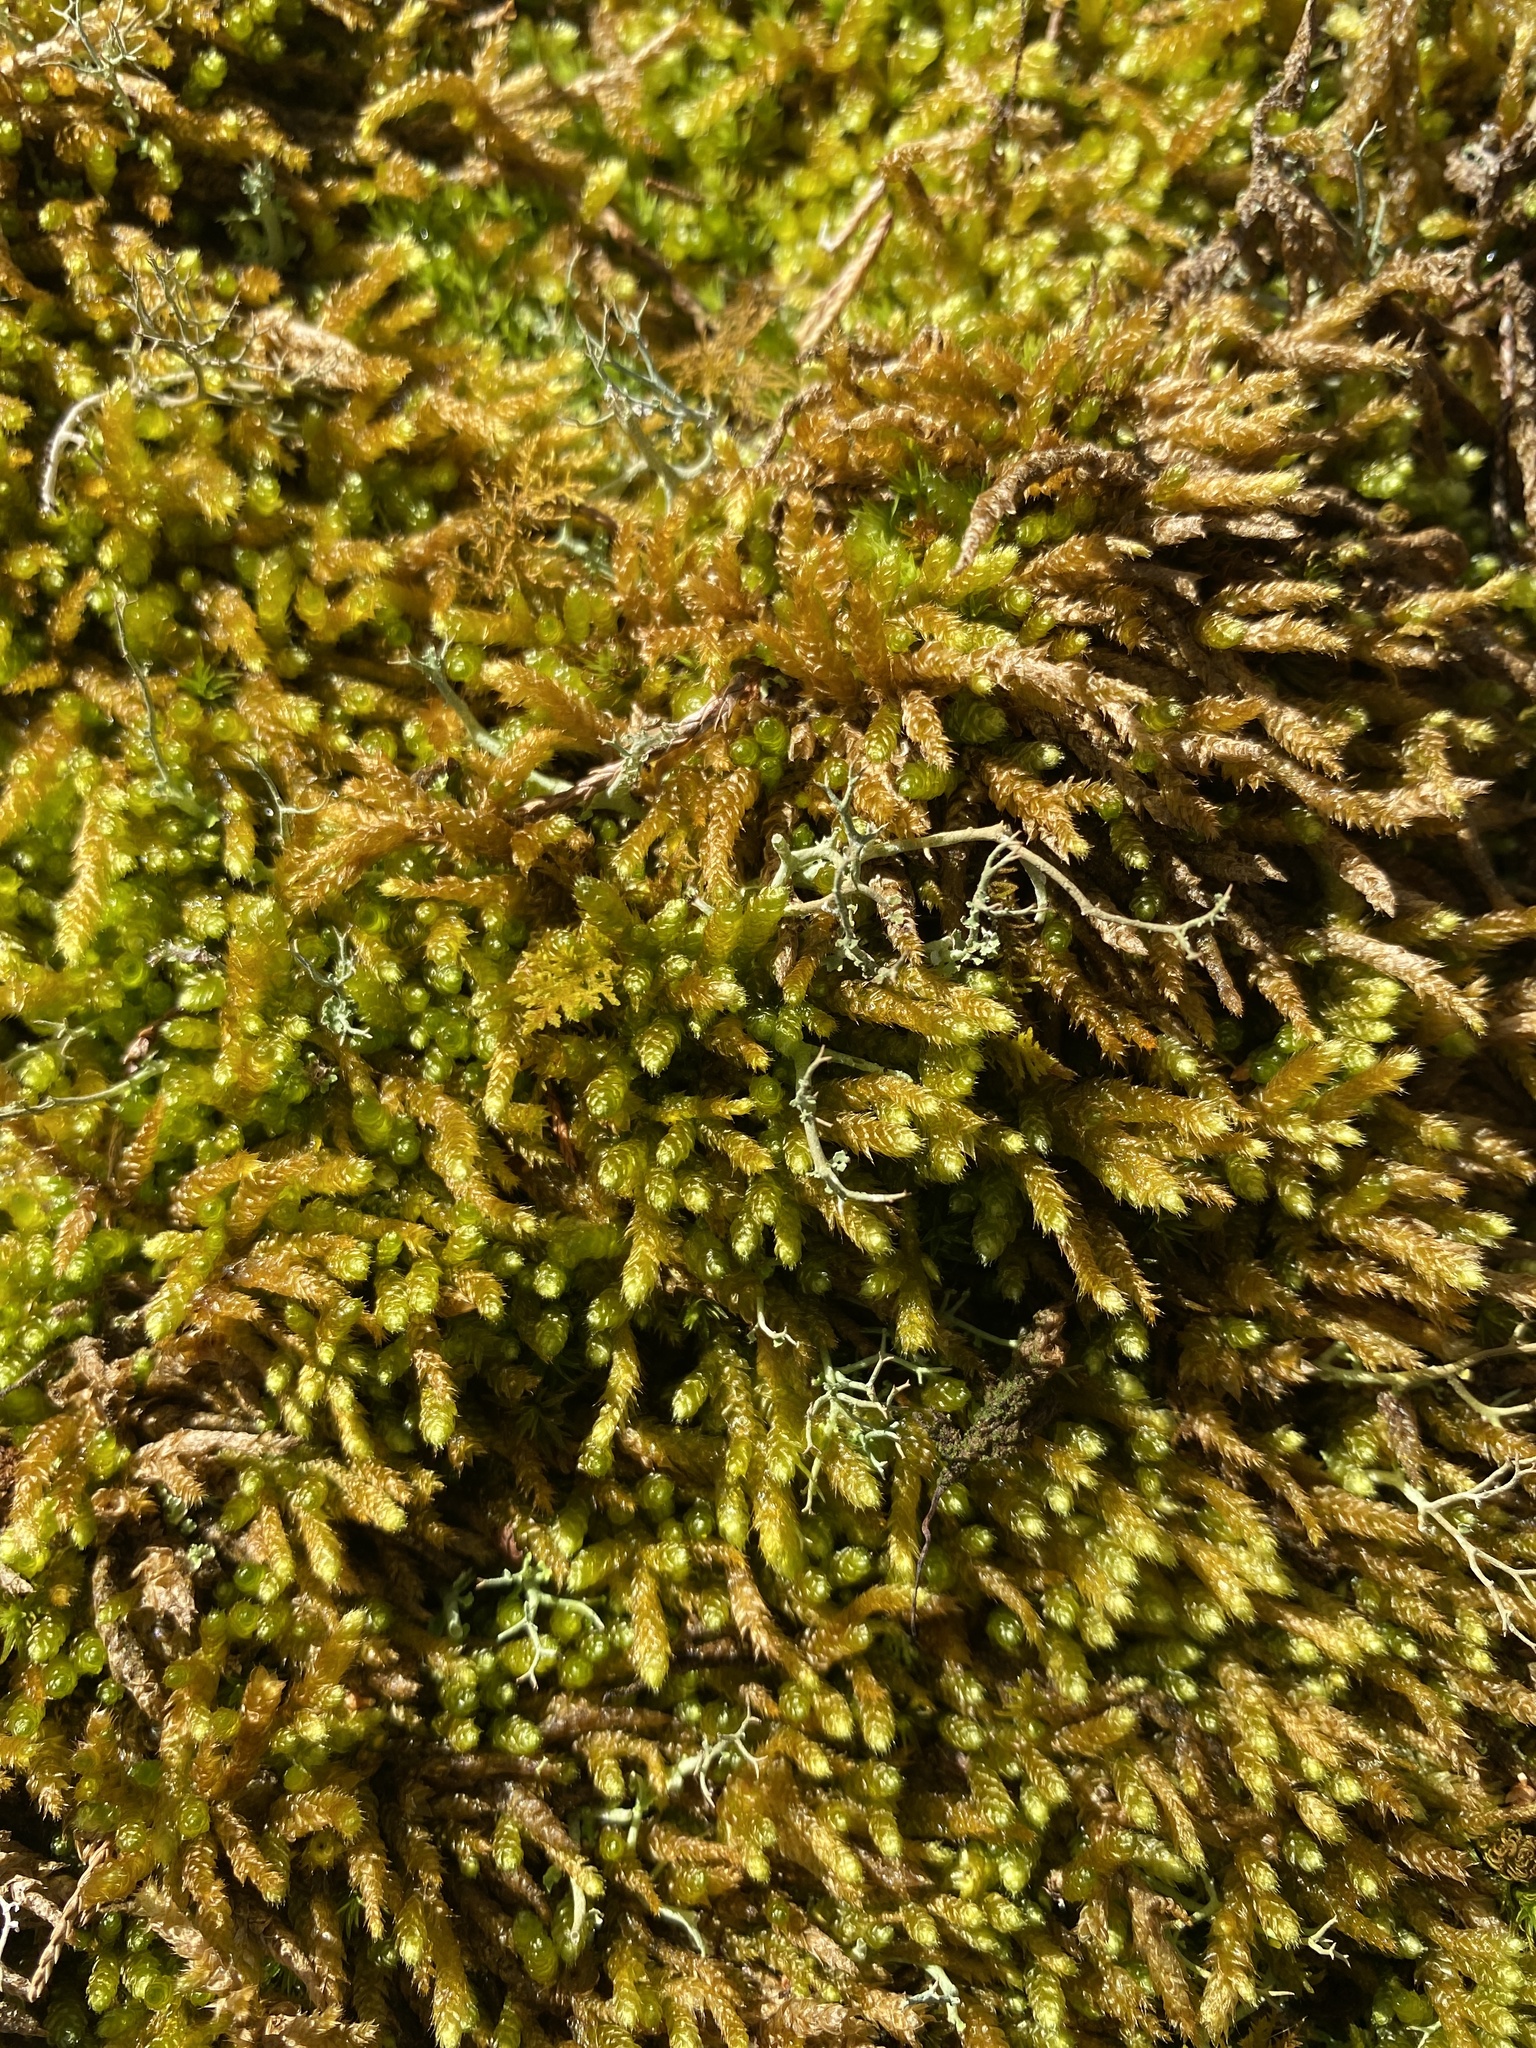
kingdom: Plantae
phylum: Bryophyta
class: Bryopsida
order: Hypnales
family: Brachytheciaceae
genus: Bryoandersonia
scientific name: Bryoandersonia illecebra
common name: Spoon-leaved moss
